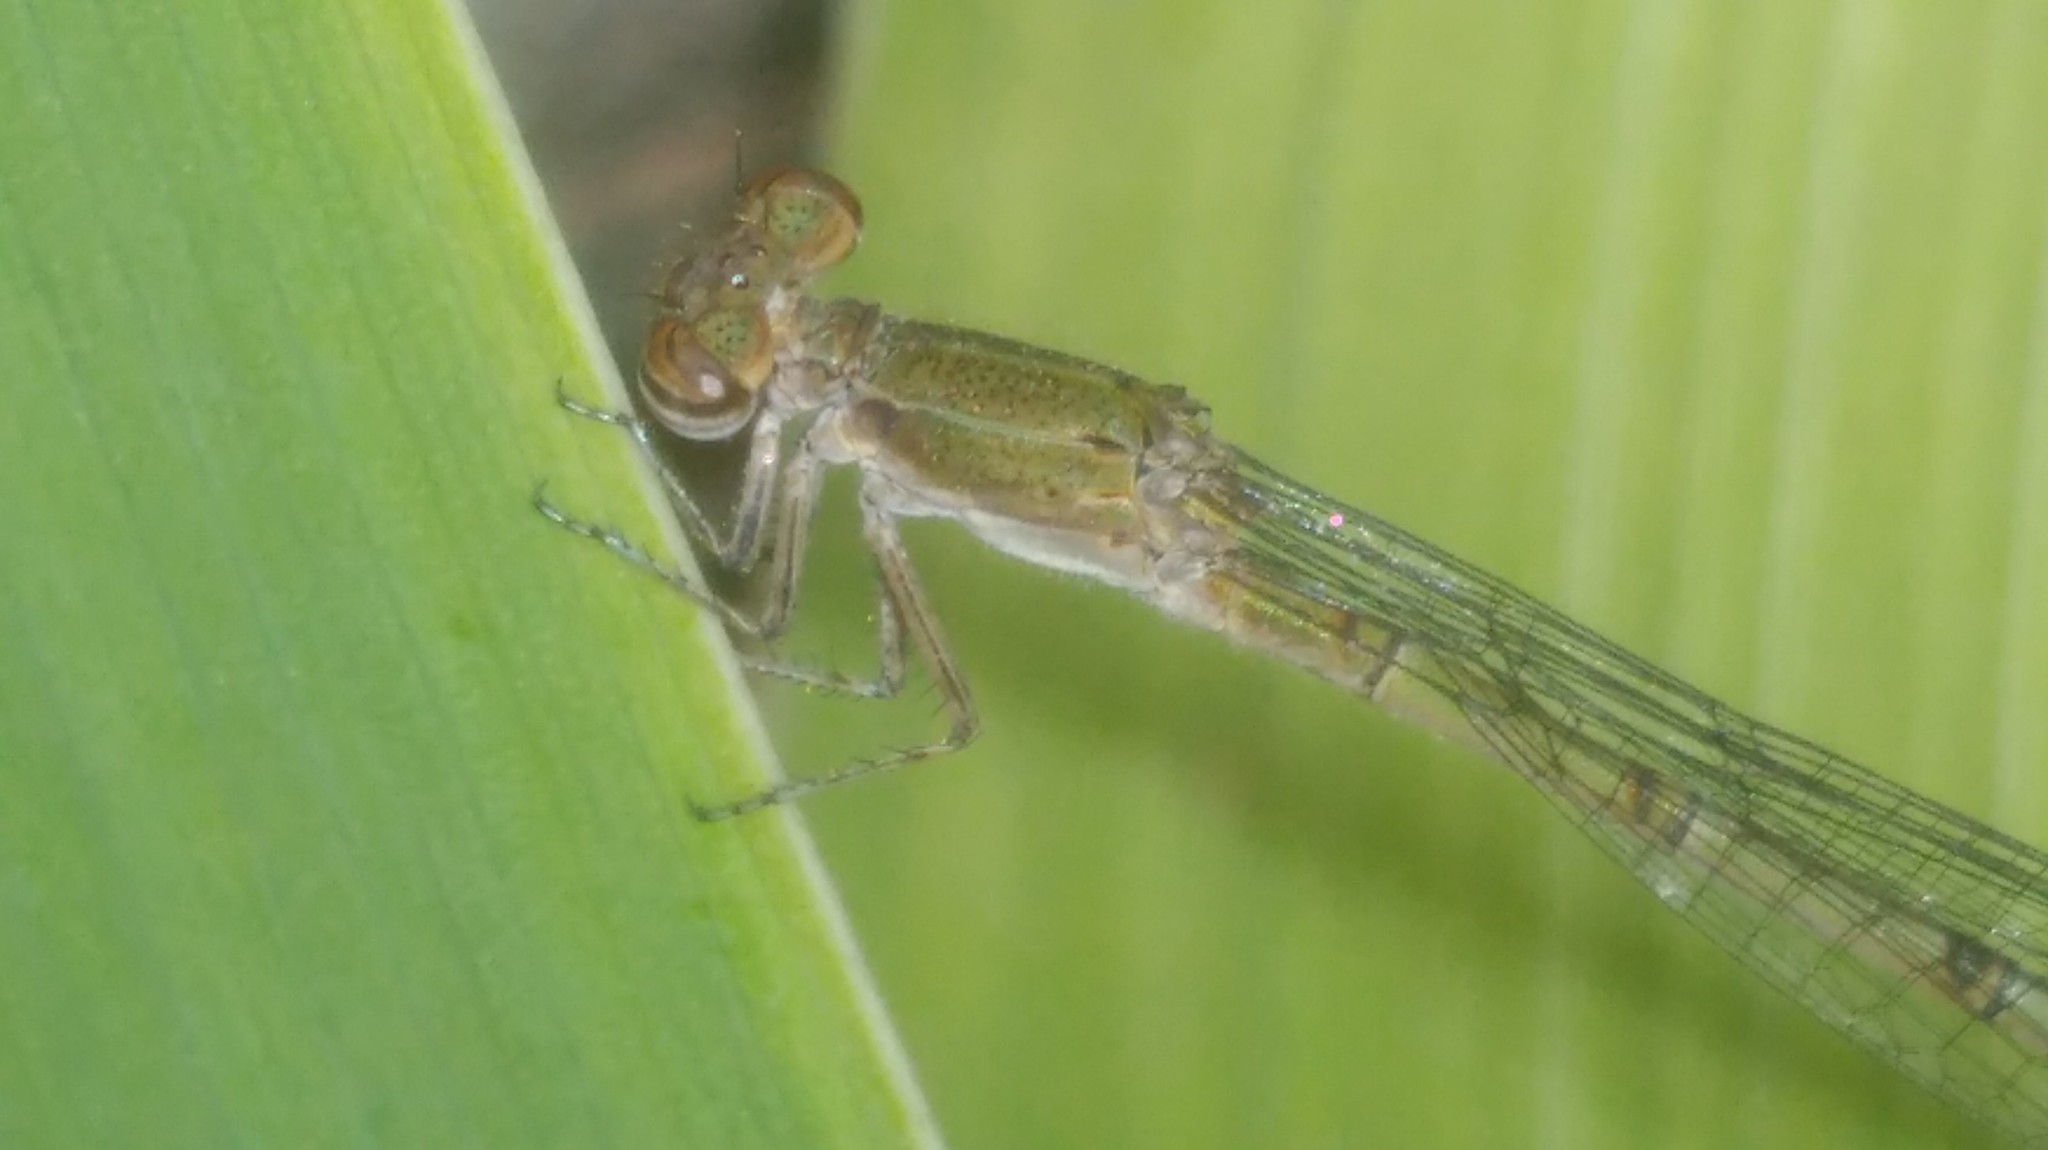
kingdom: Animalia
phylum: Arthropoda
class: Insecta
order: Odonata
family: Coenagrionidae
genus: Oxyagrion
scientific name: Oxyagrion terminale
